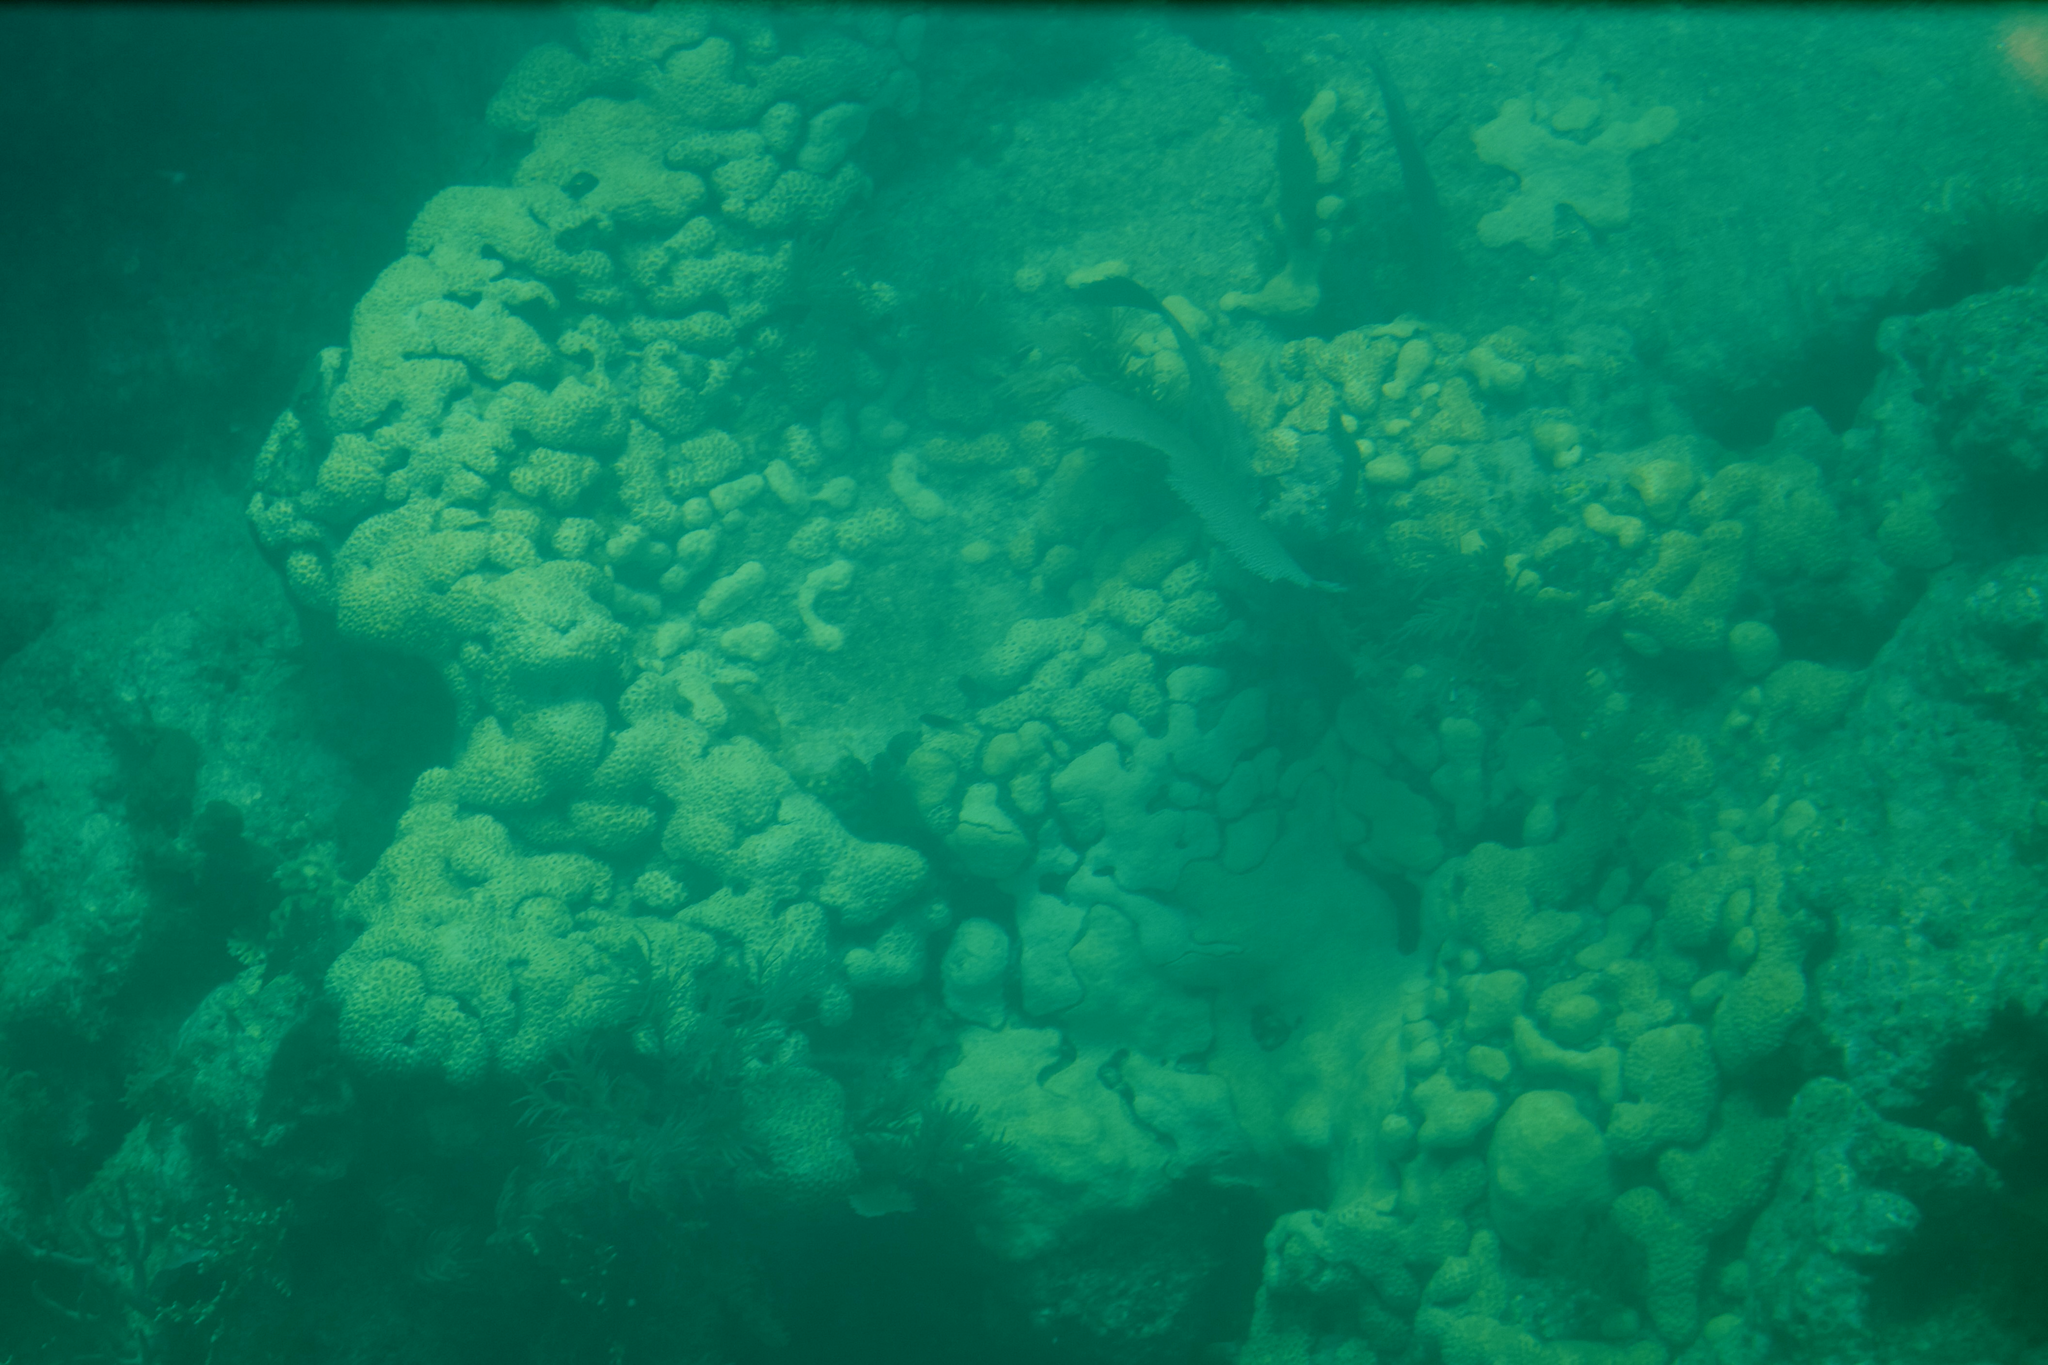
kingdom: Animalia
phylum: Cnidaria
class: Anthozoa
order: Zoantharia
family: Sphenopidae
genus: Palythoa
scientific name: Palythoa caribaeorum
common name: Encrusting colonial anemone
